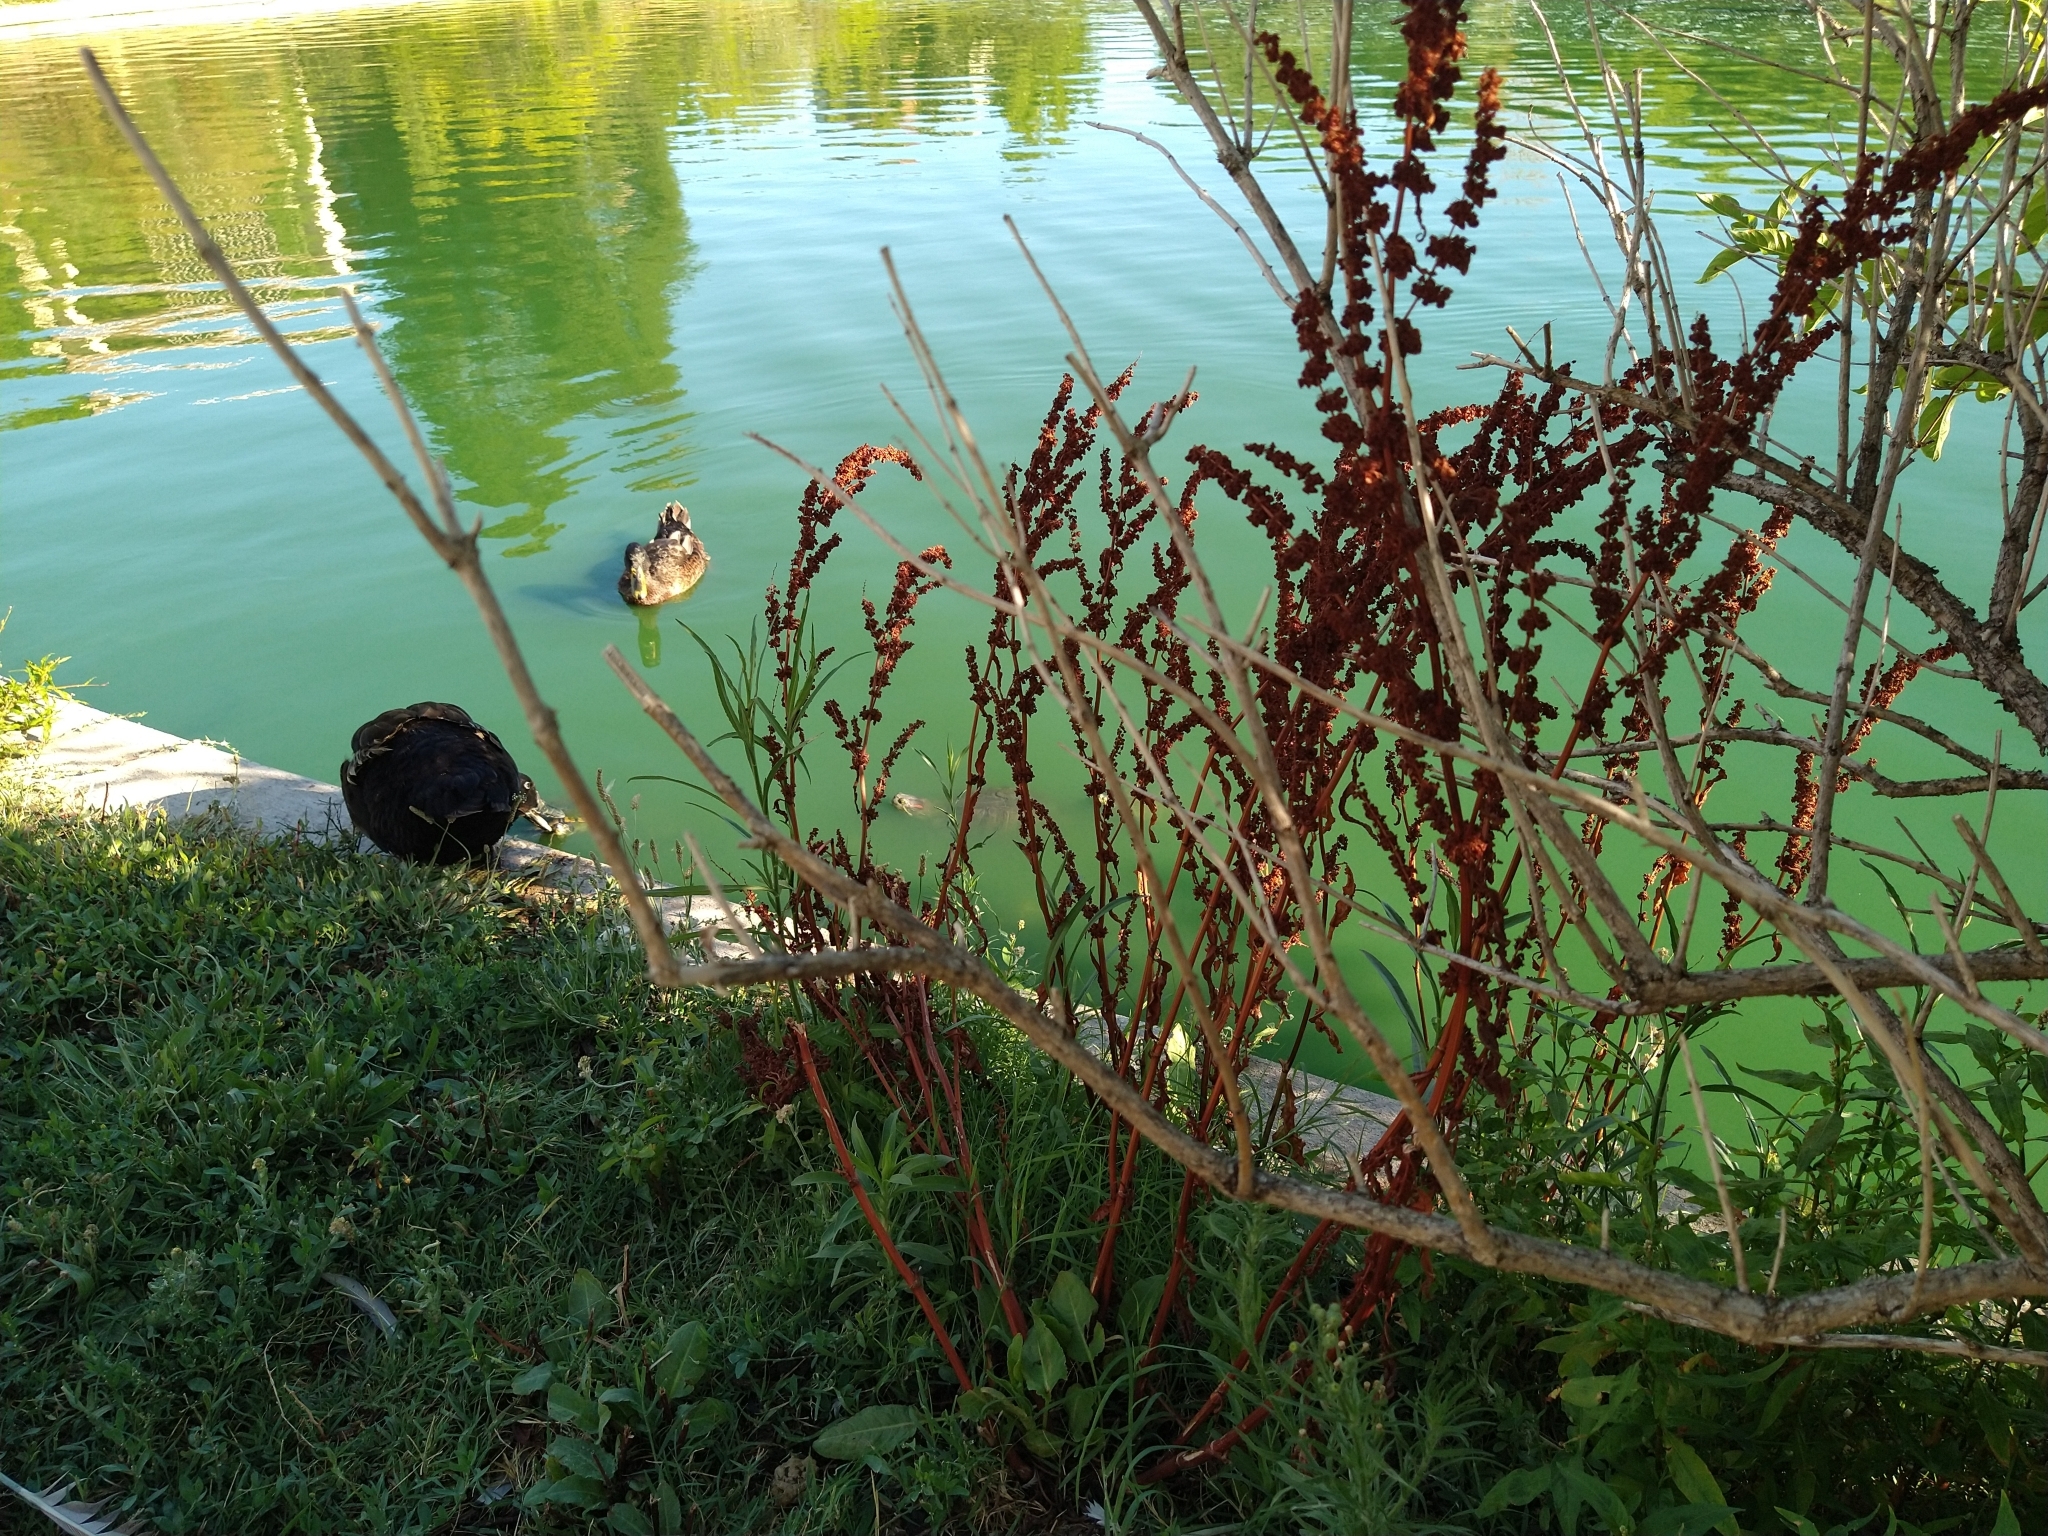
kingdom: Animalia
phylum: Chordata
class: Aves
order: Anseriformes
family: Anatidae
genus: Anas
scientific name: Anas platyrhynchos
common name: Mallard
